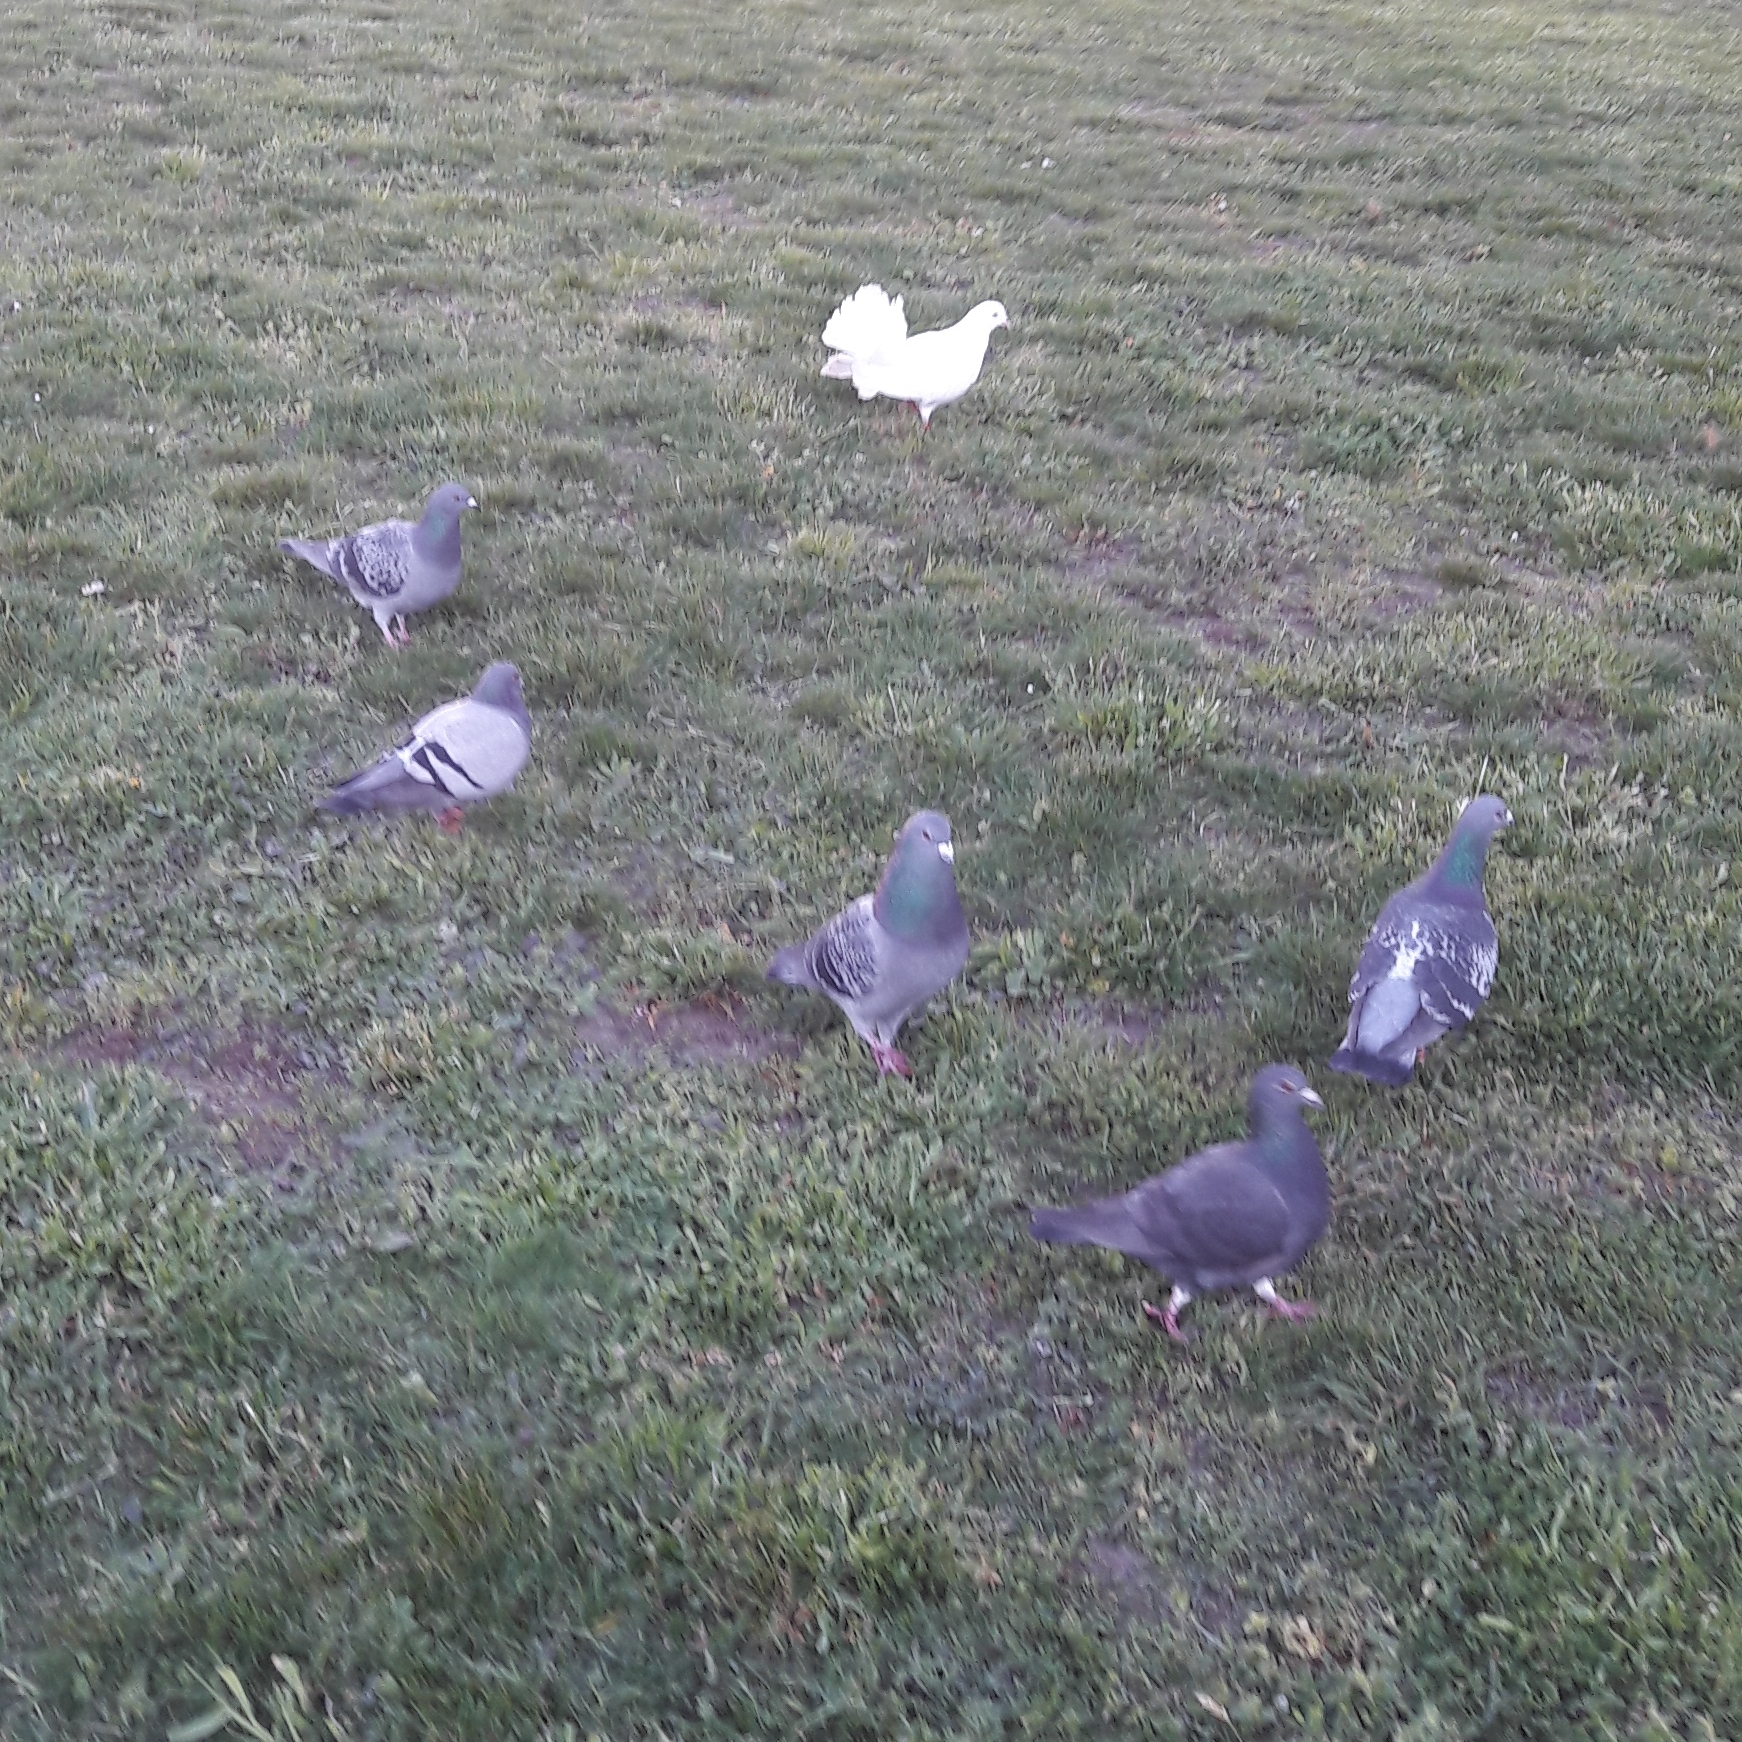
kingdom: Animalia
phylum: Chordata
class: Aves
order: Columbiformes
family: Columbidae
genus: Columba
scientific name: Columba livia
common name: Rock pigeon
